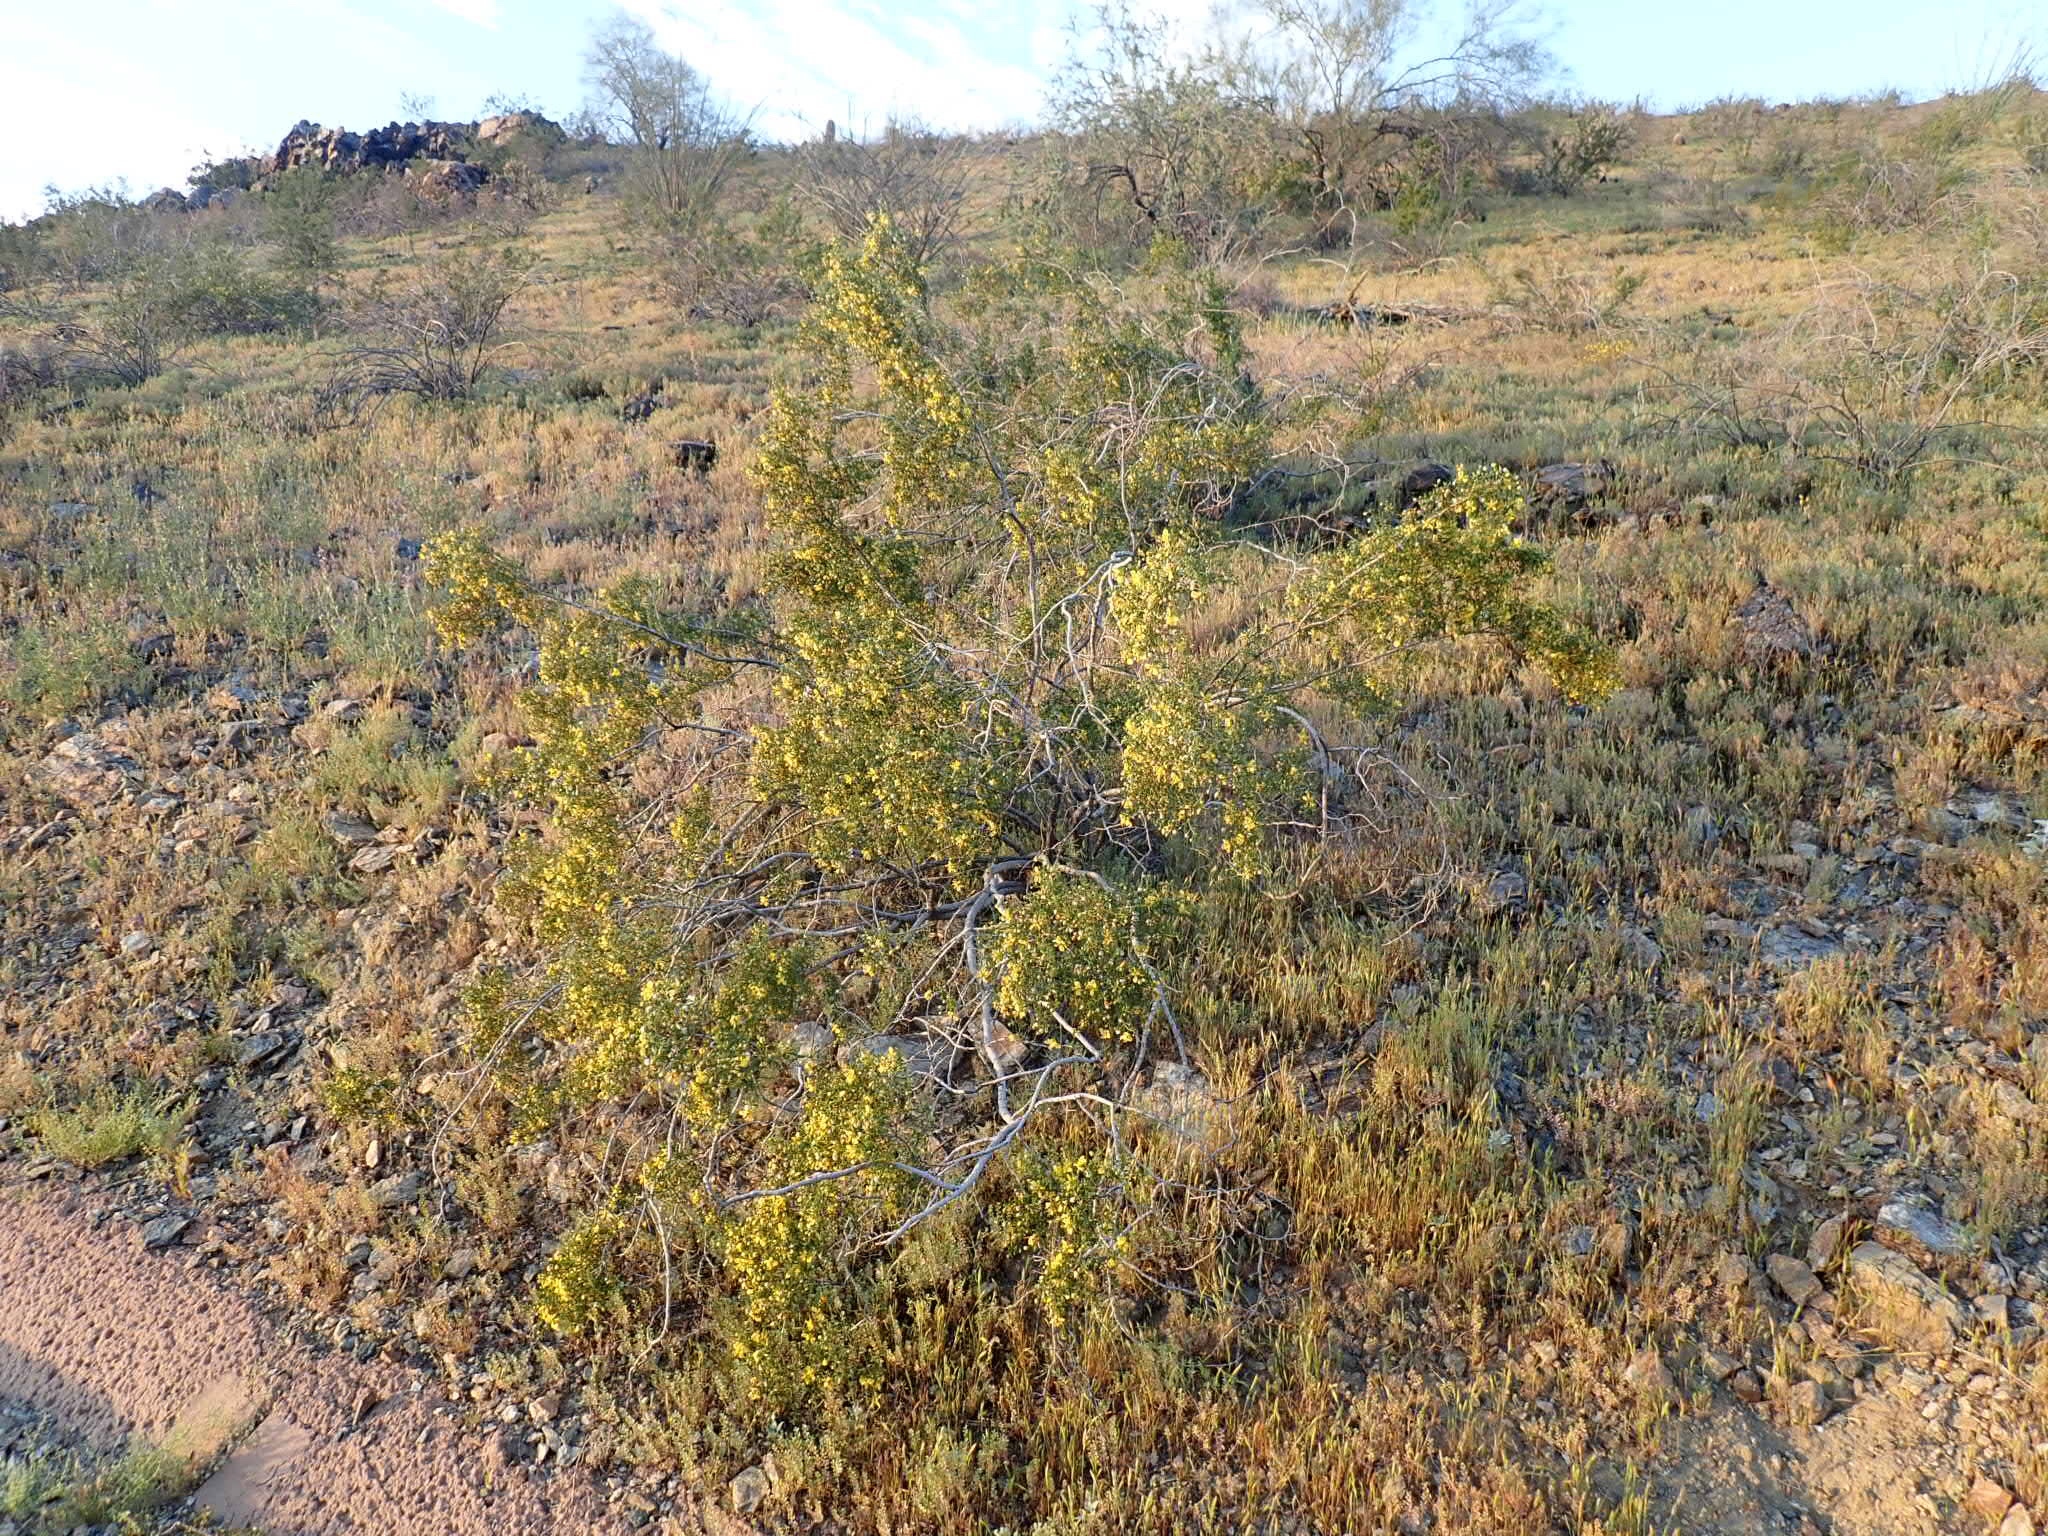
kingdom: Plantae
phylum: Tracheophyta
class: Magnoliopsida
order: Zygophyllales
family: Zygophyllaceae
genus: Larrea
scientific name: Larrea tridentata
